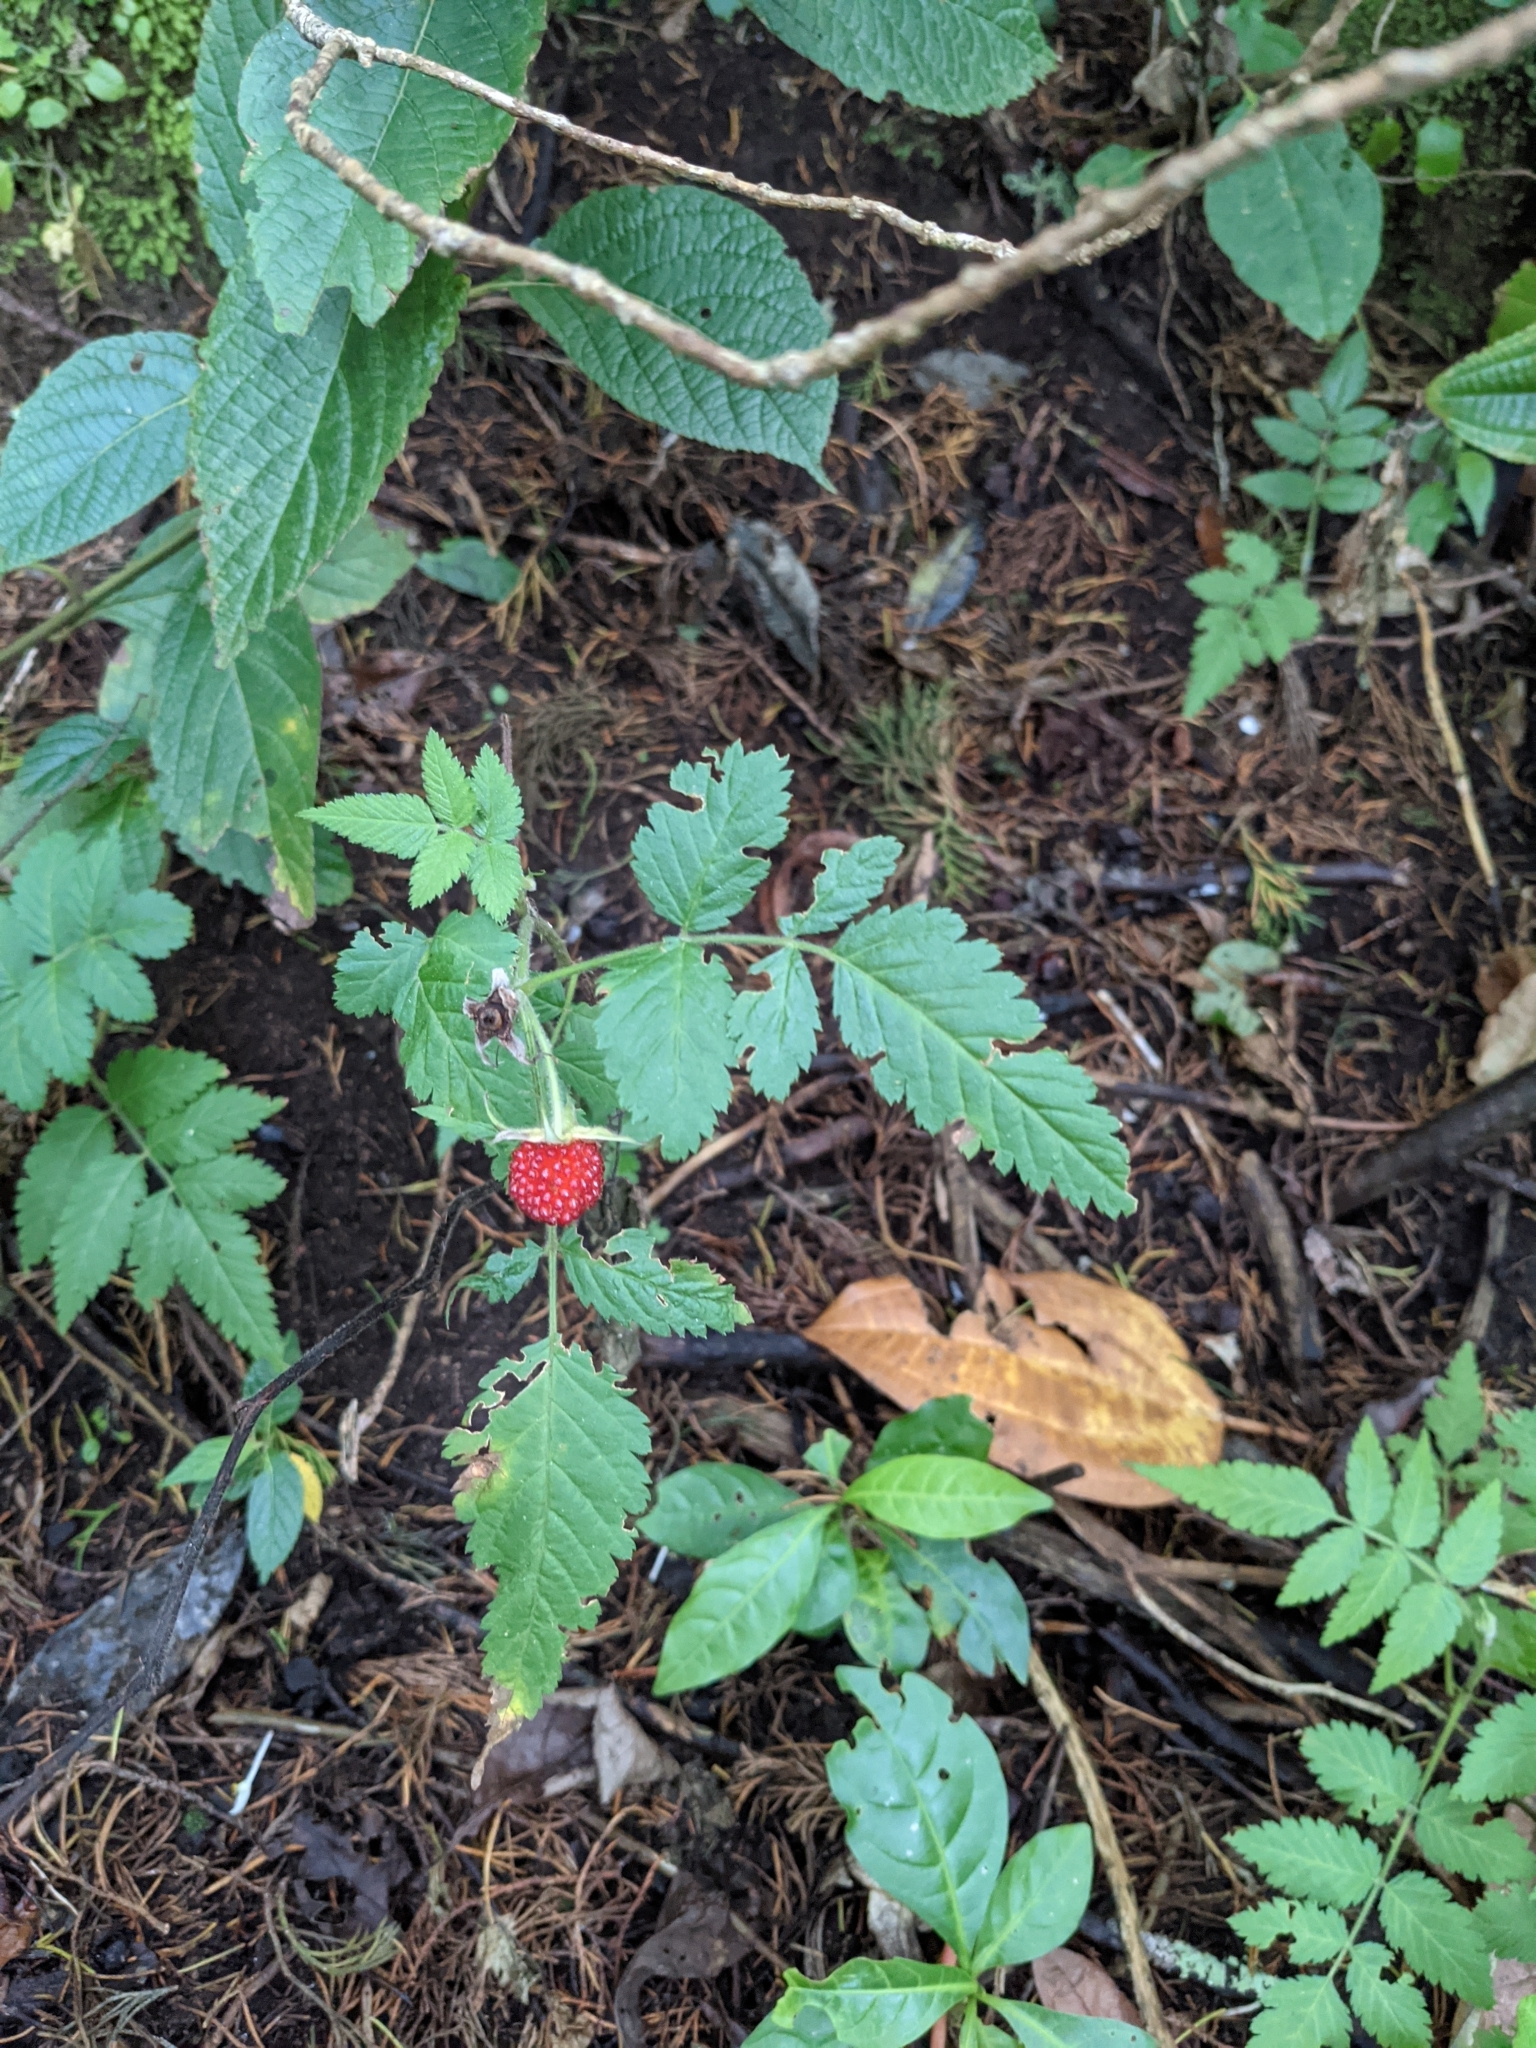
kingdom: Plantae
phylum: Tracheophyta
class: Magnoliopsida
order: Rosales
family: Rosaceae
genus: Rubus
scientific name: Rubus rosifolius
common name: Roseleaf raspberry
